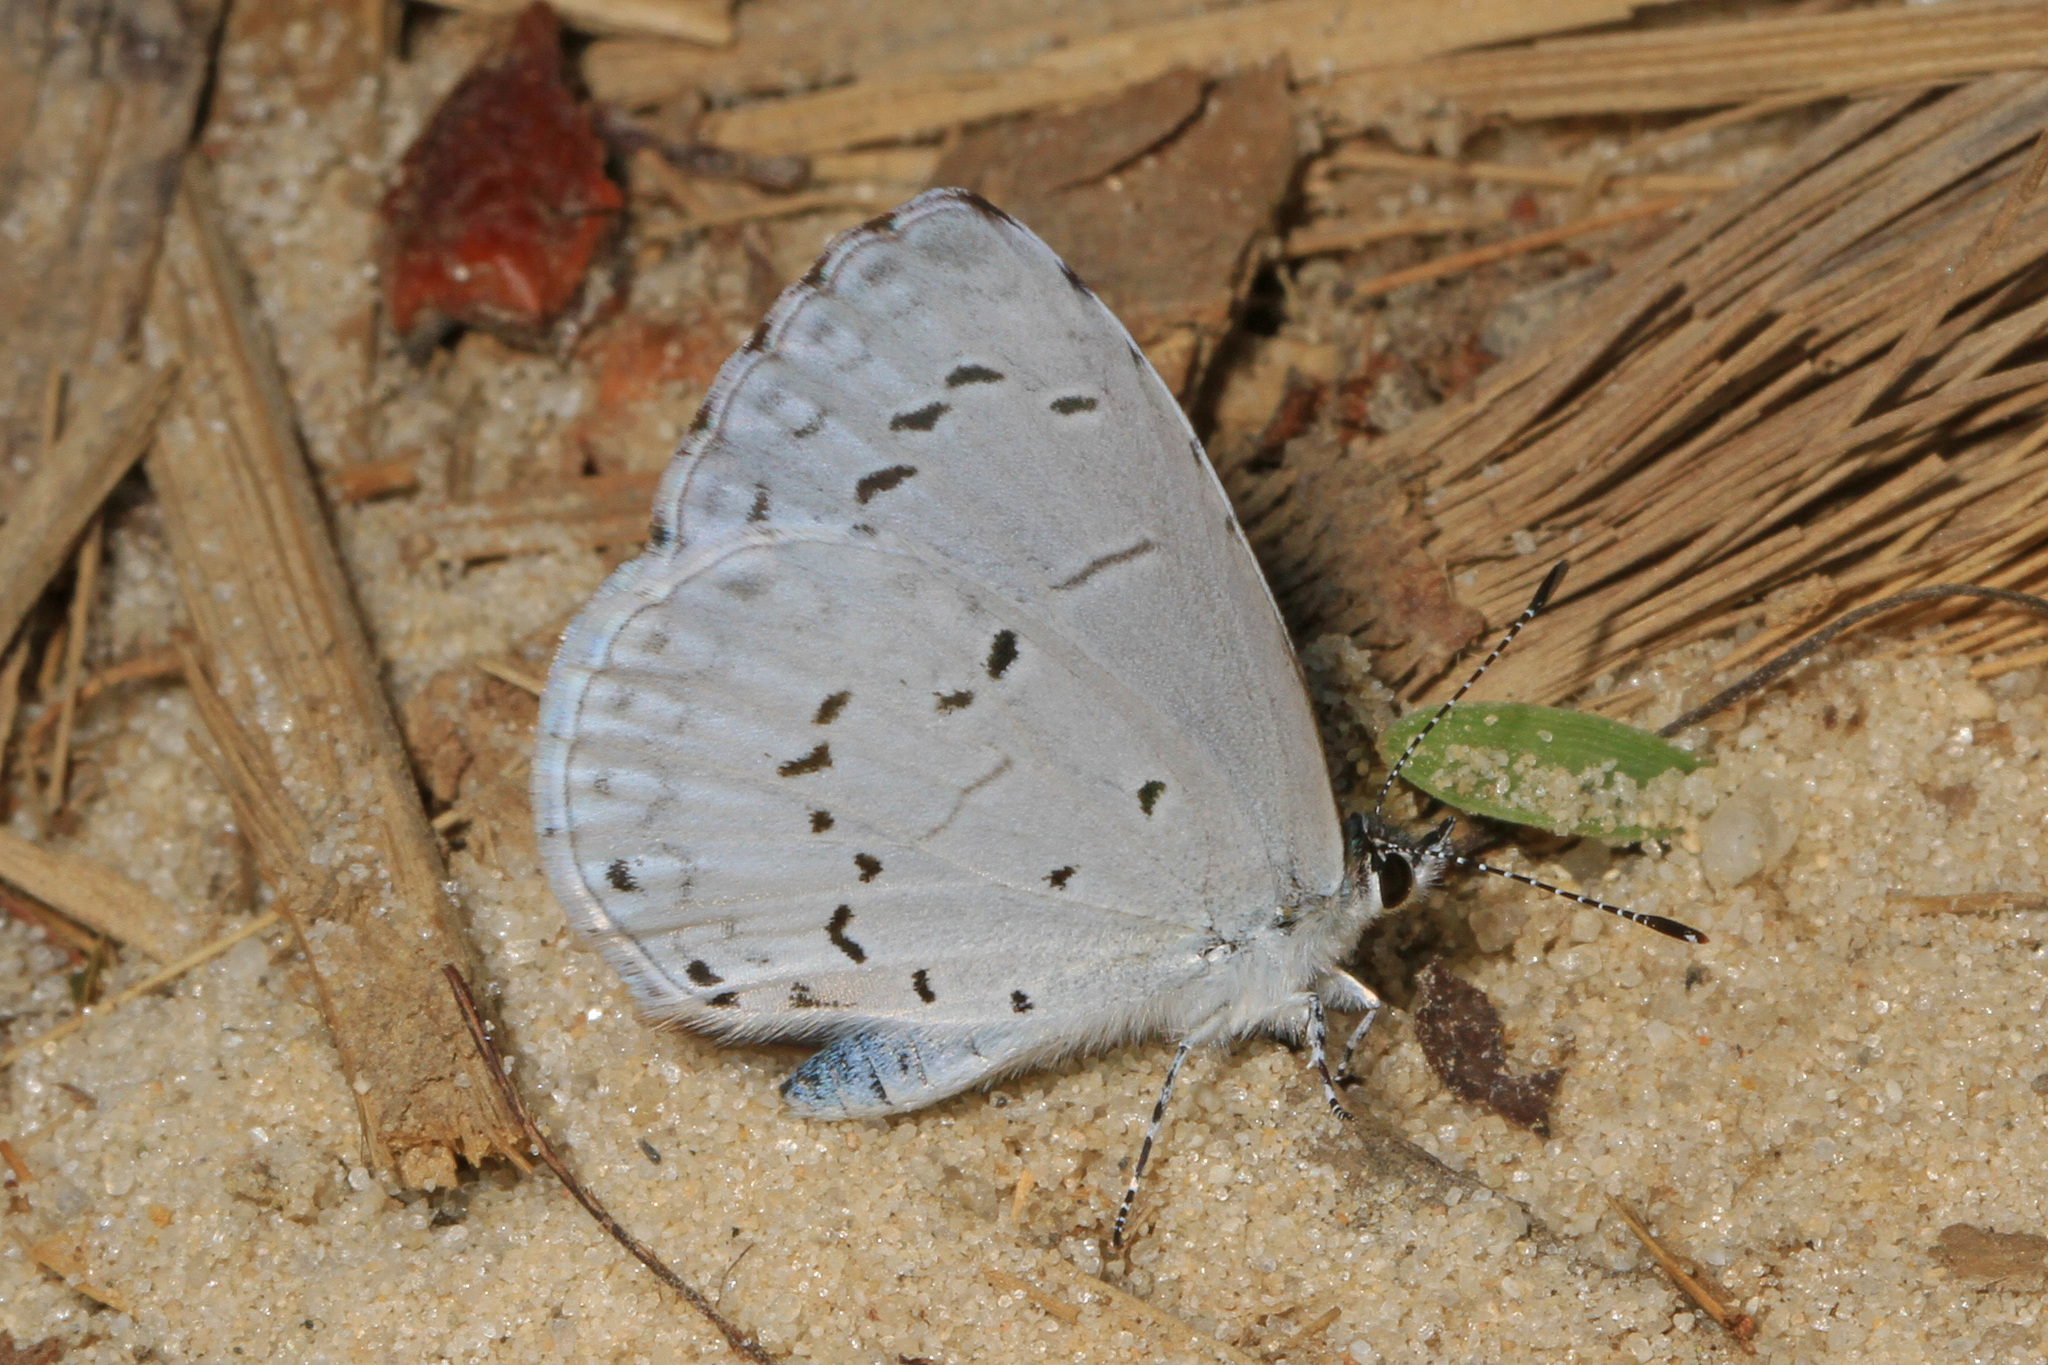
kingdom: Animalia
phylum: Arthropoda
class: Insecta
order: Lepidoptera
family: Lycaenidae
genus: Cyaniris
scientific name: Cyaniris neglecta
